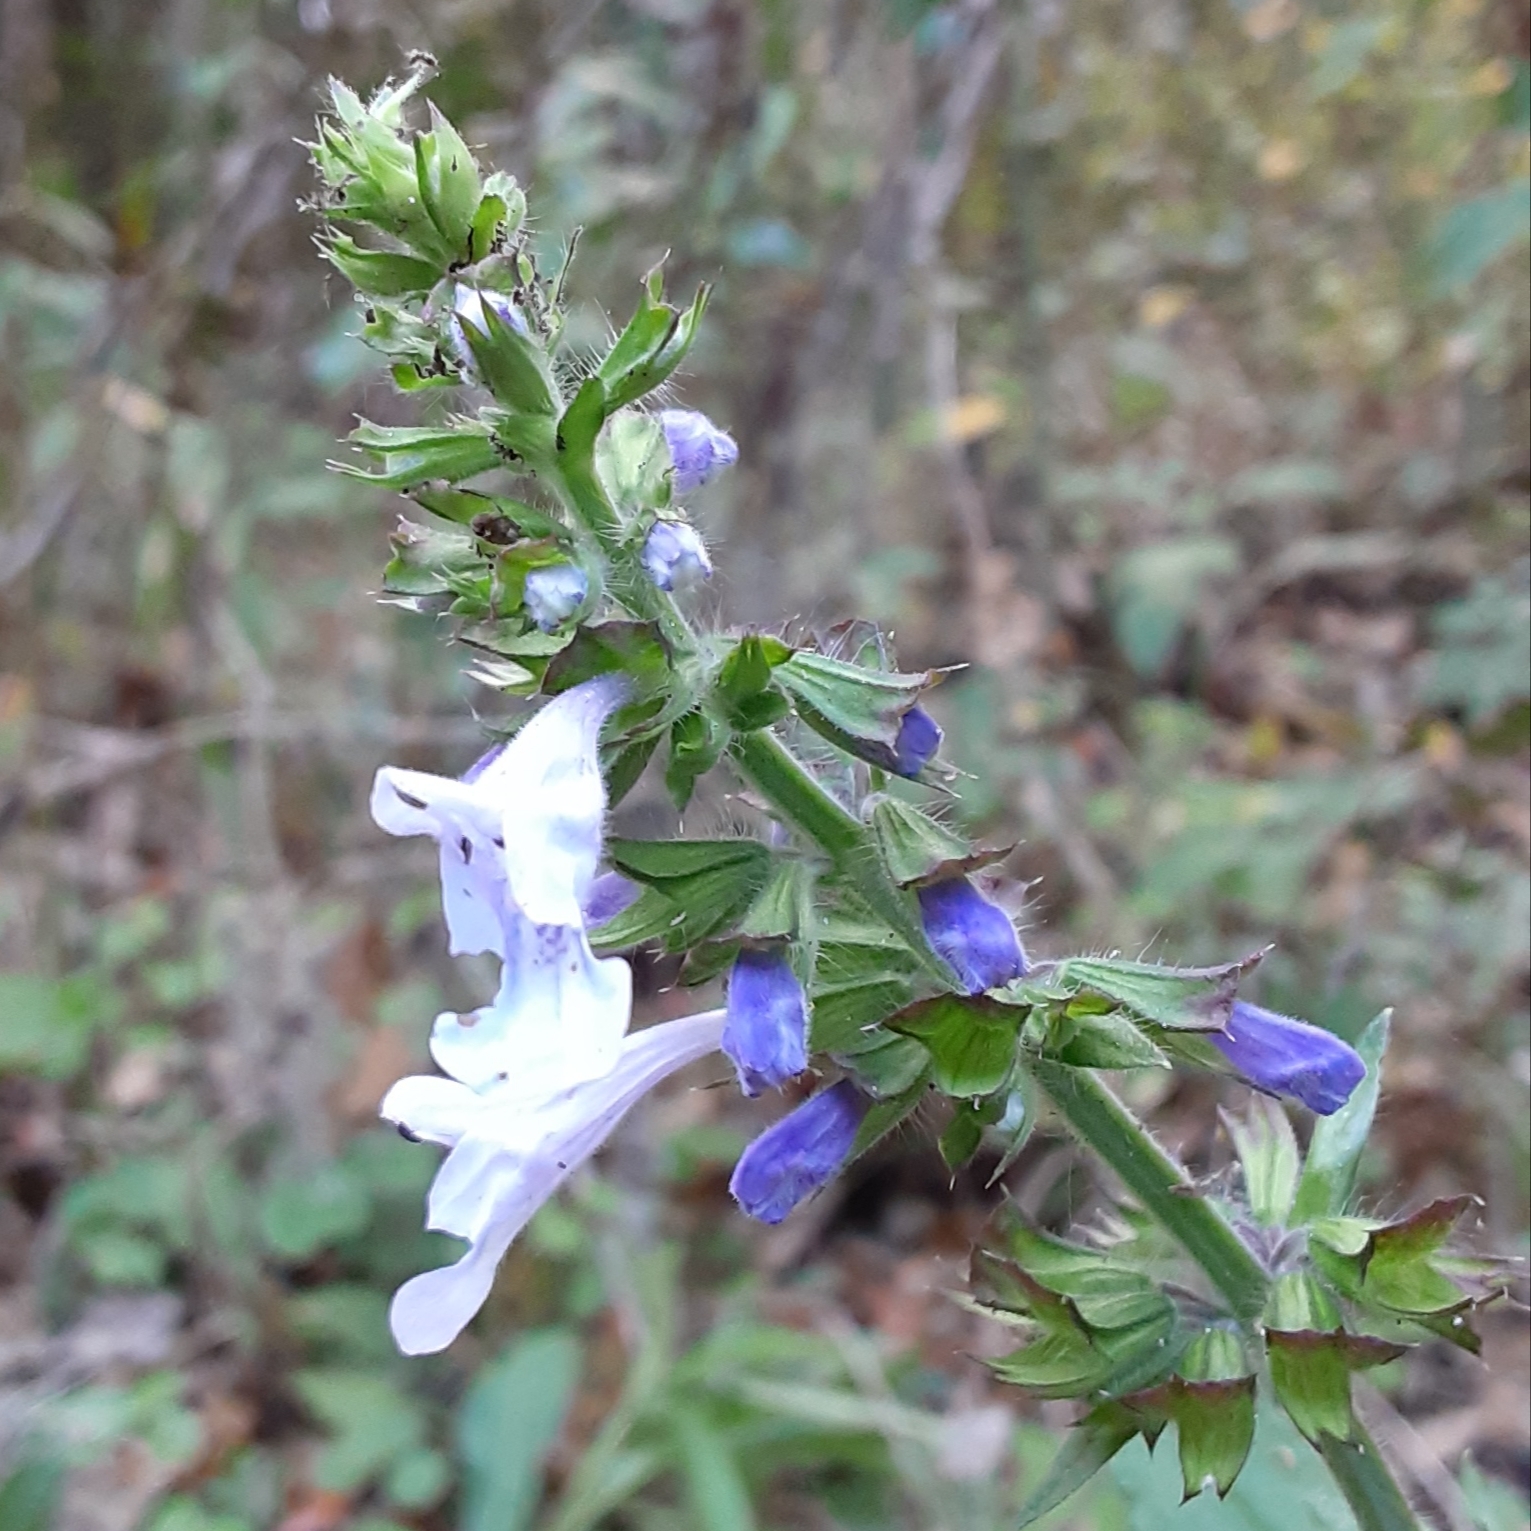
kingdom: Plantae
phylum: Tracheophyta
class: Magnoliopsida
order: Lamiales
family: Lamiaceae
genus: Salvia
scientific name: Salvia lyrata
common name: Cancerweed
